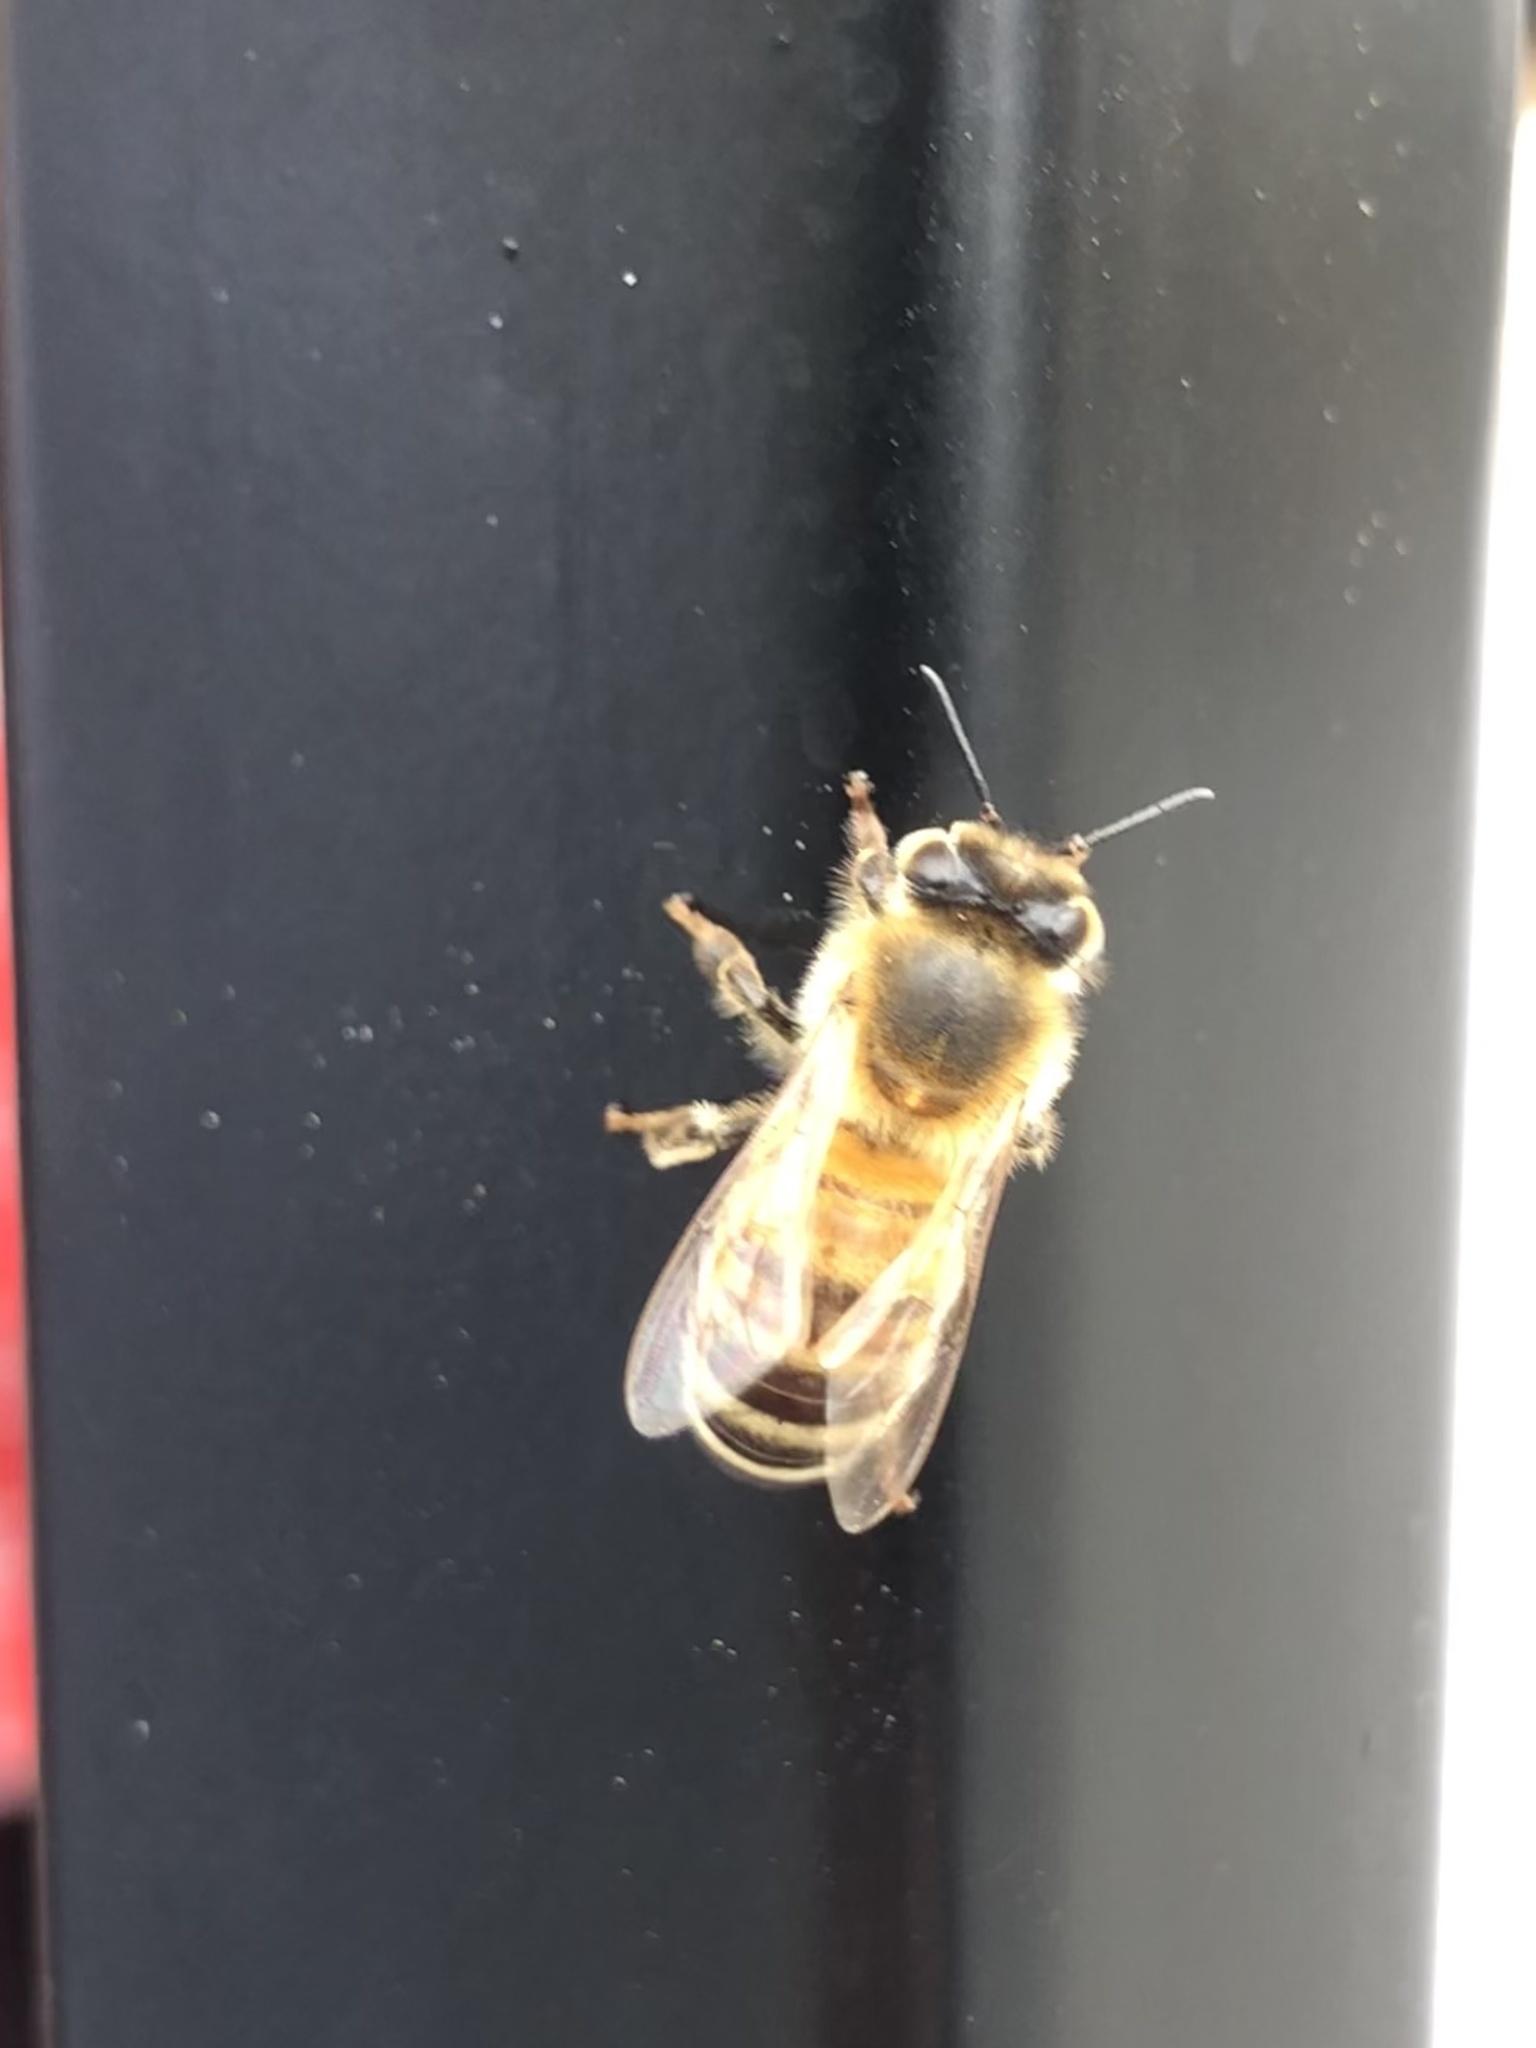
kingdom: Animalia
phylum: Arthropoda
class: Insecta
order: Hymenoptera
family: Apidae
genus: Apis
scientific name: Apis mellifera
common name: Honey bee
